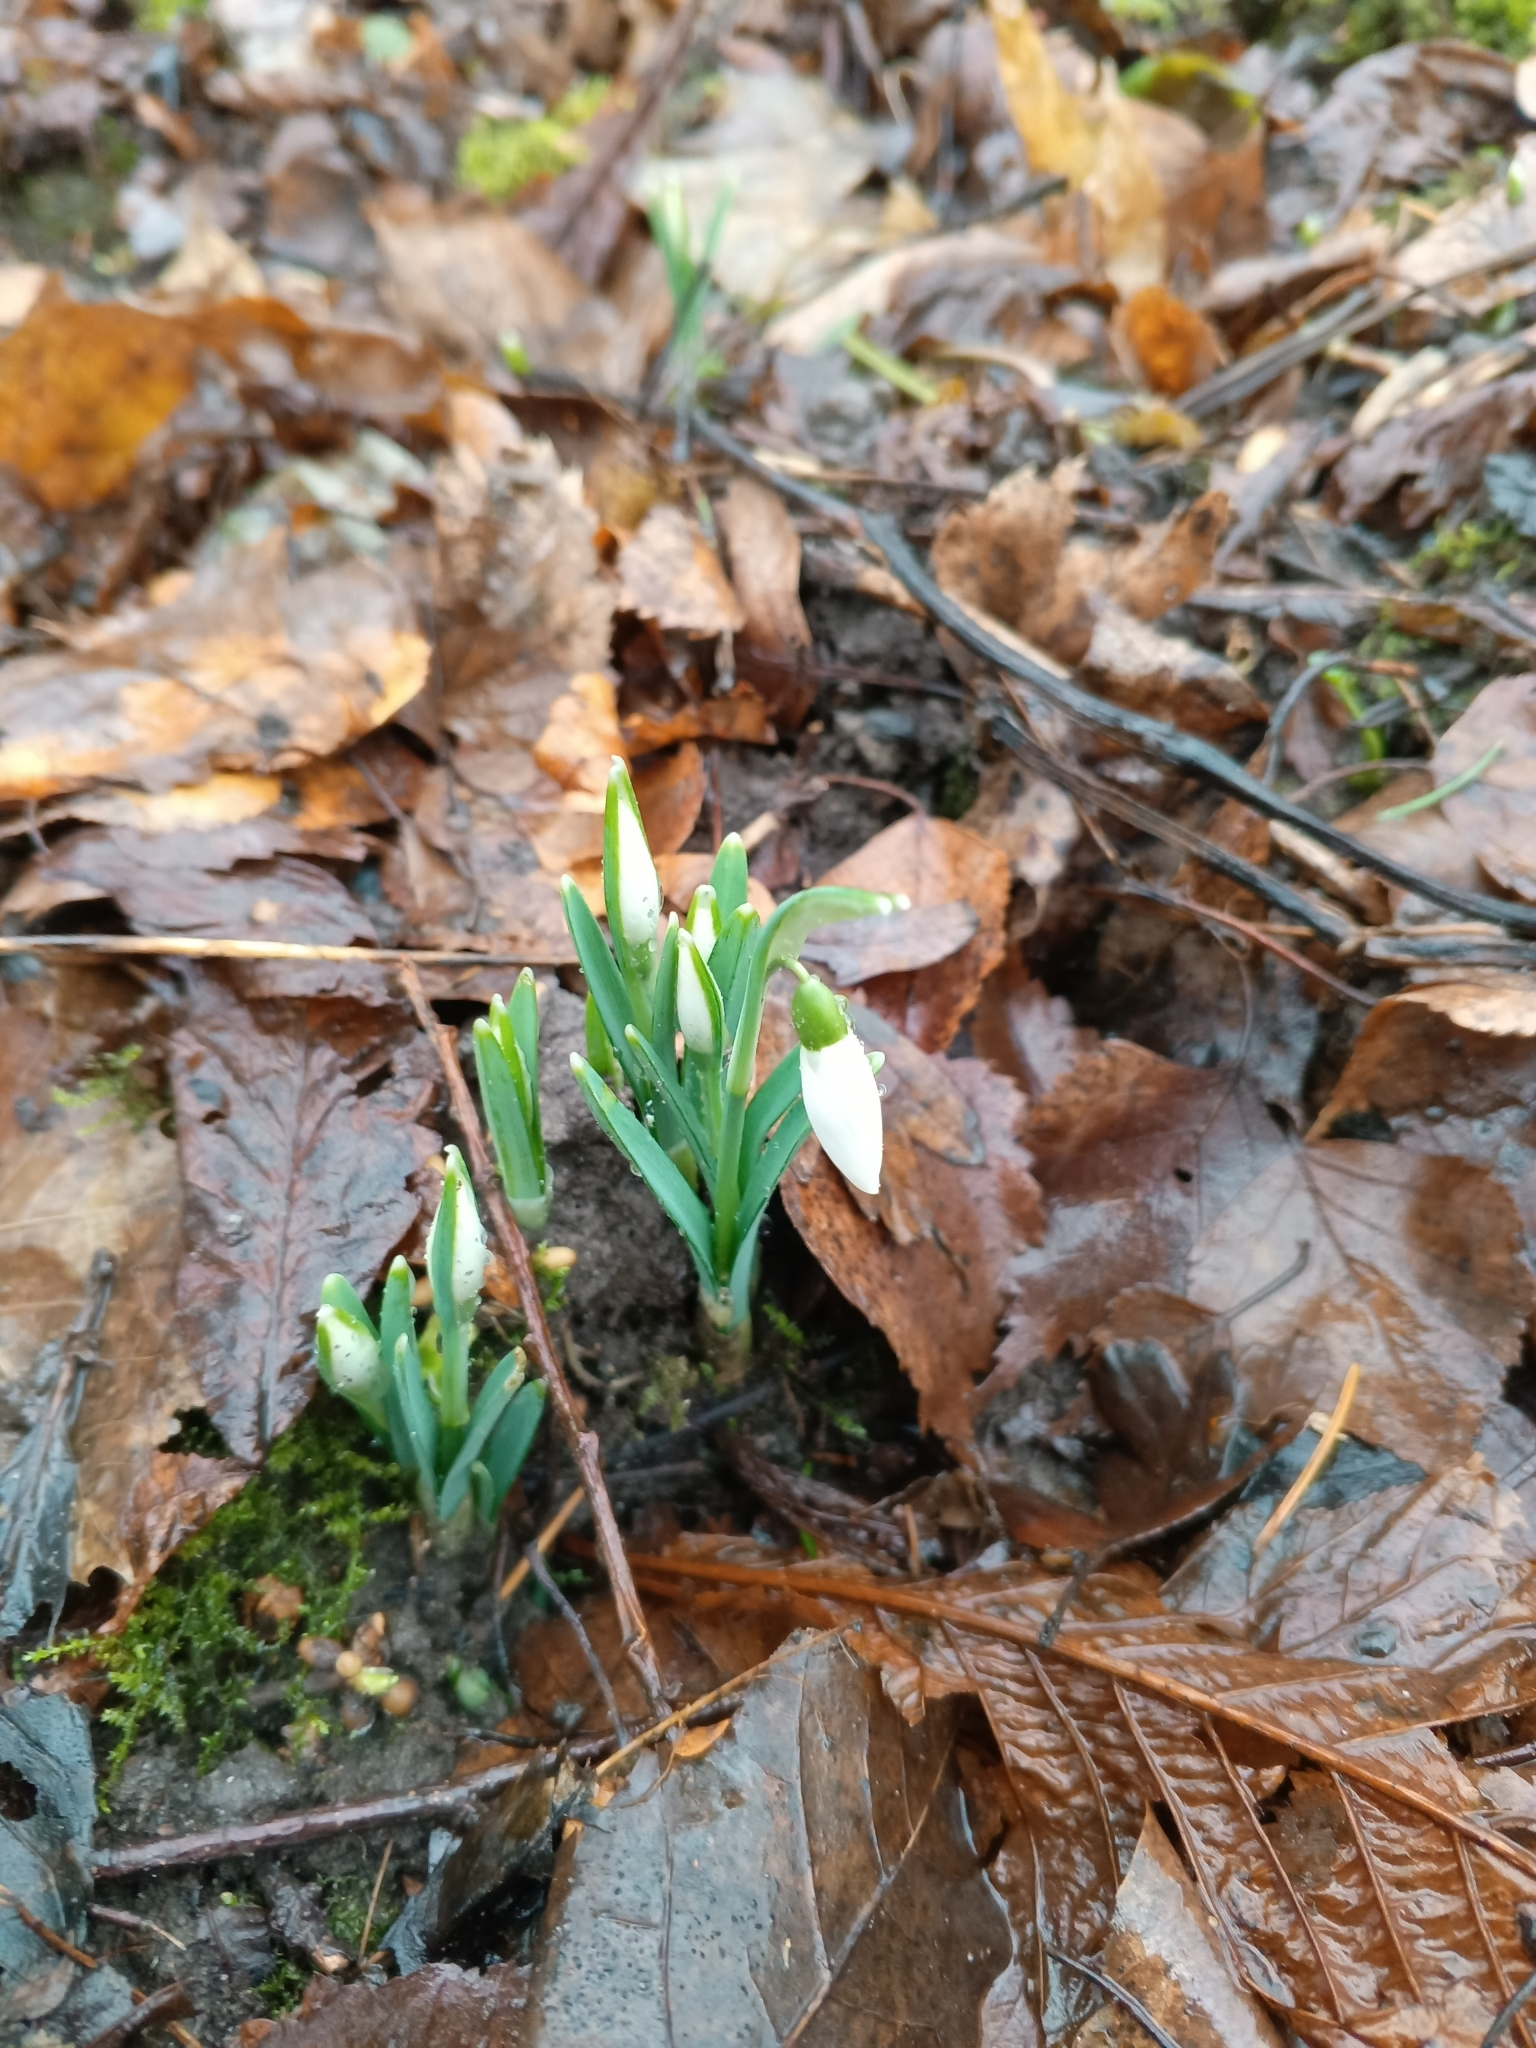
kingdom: Plantae
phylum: Tracheophyta
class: Liliopsida
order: Asparagales
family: Amaryllidaceae
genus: Galanthus
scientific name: Galanthus nivalis
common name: Snowdrop
